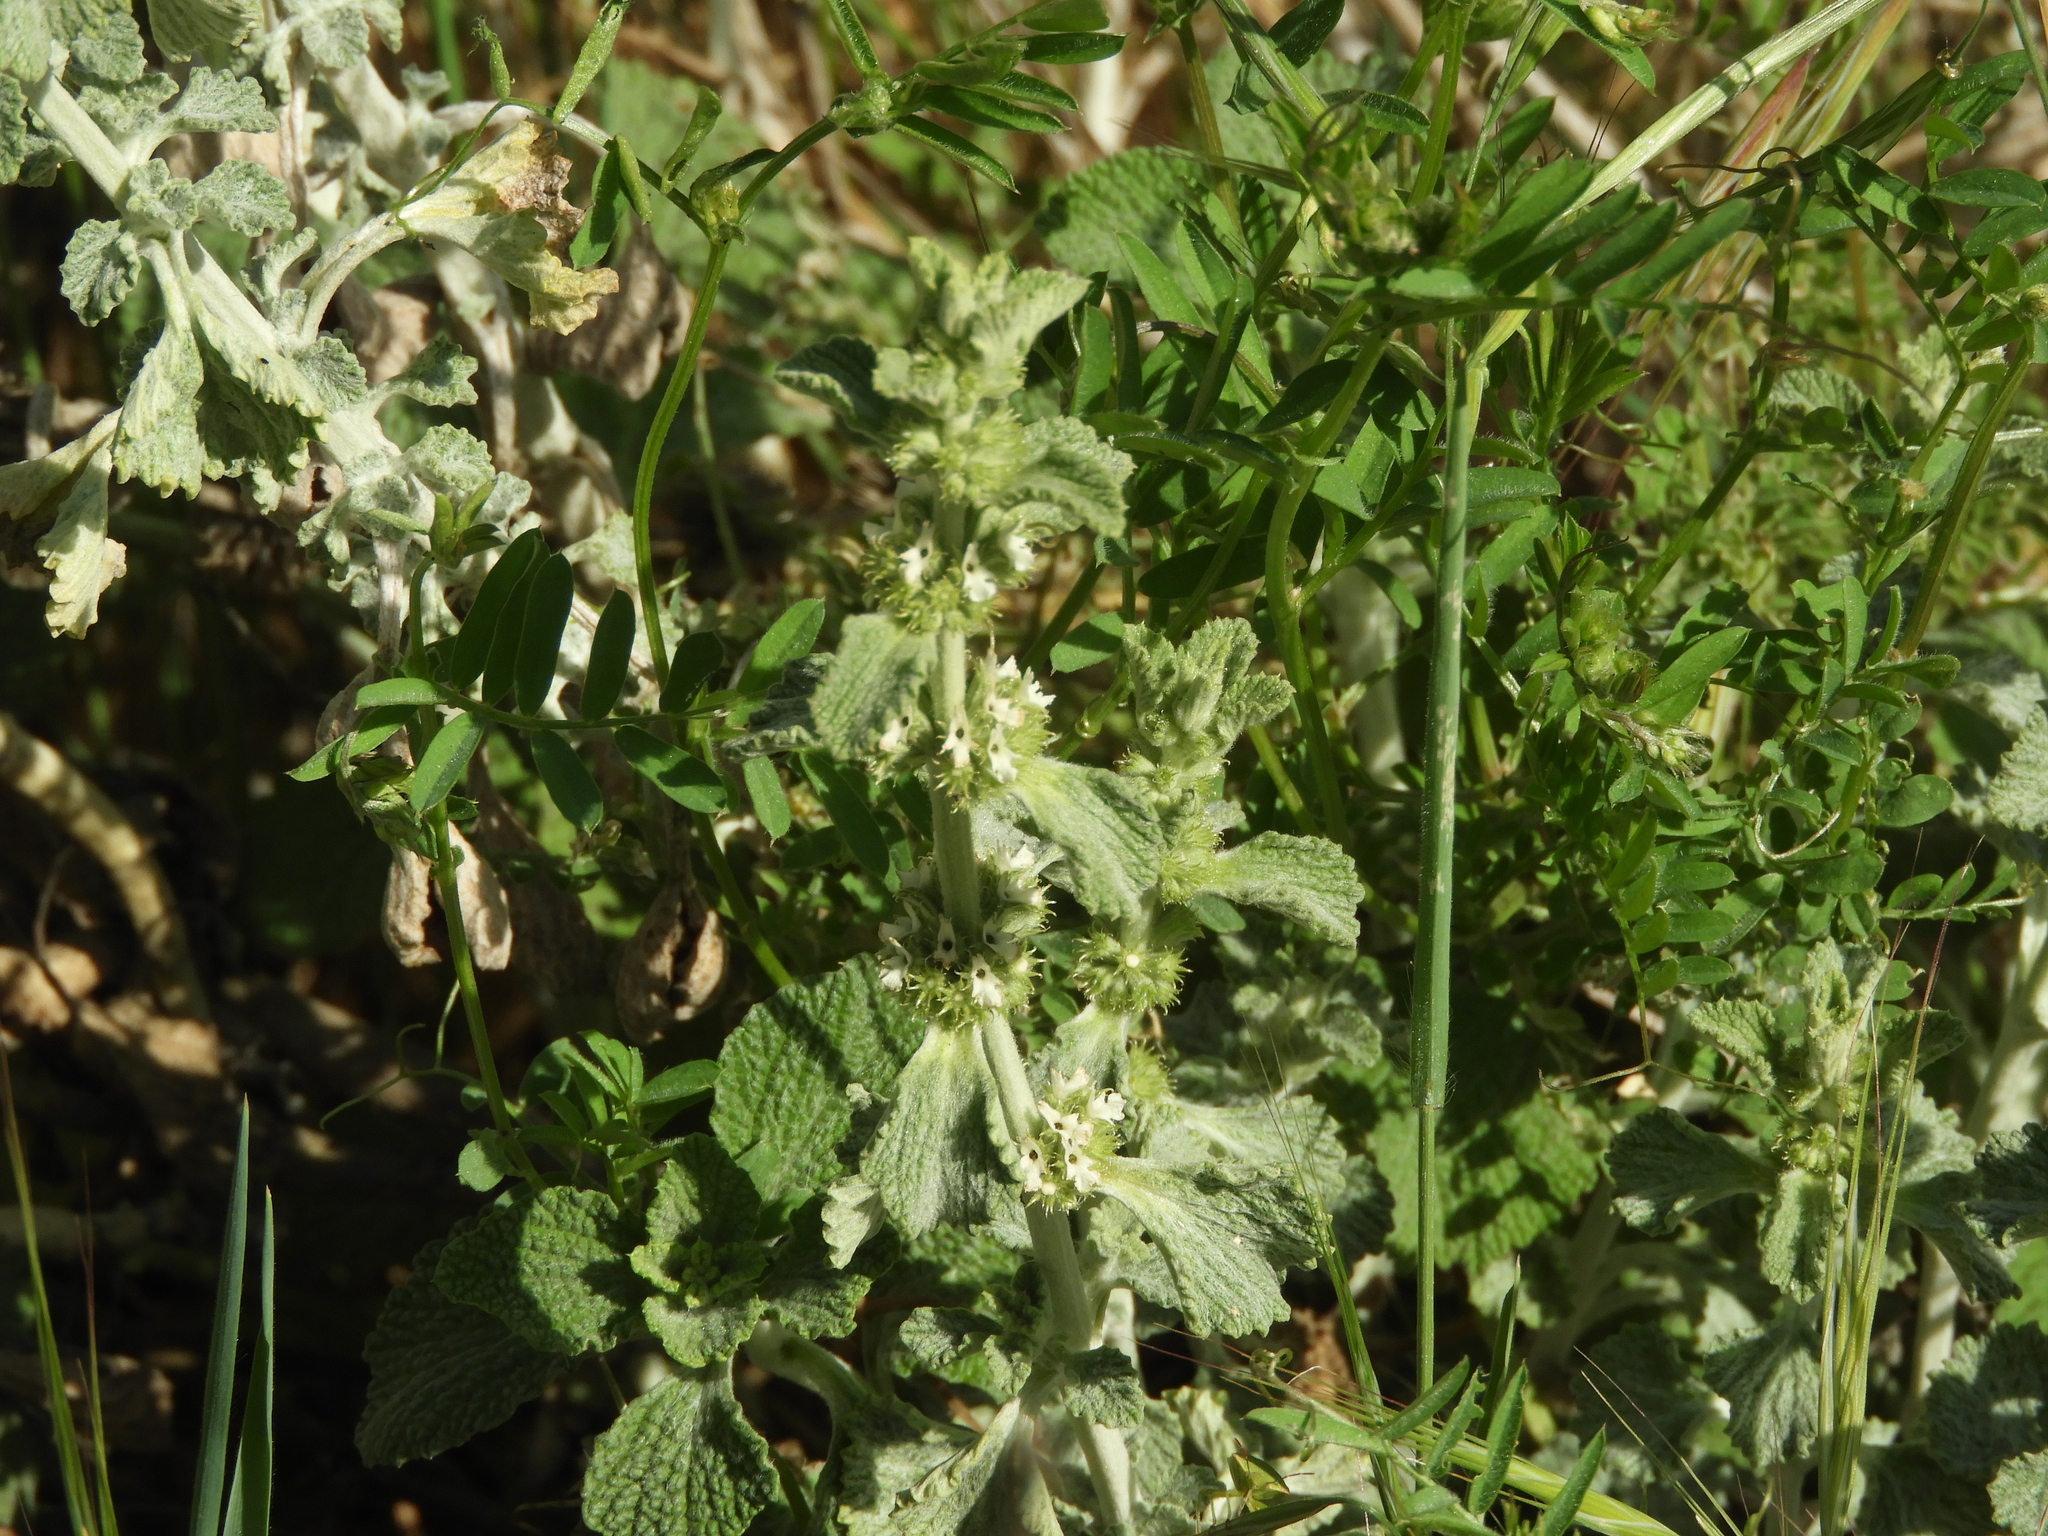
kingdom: Plantae
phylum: Tracheophyta
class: Magnoliopsida
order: Lamiales
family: Lamiaceae
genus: Marrubium
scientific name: Marrubium vulgare
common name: Horehound
